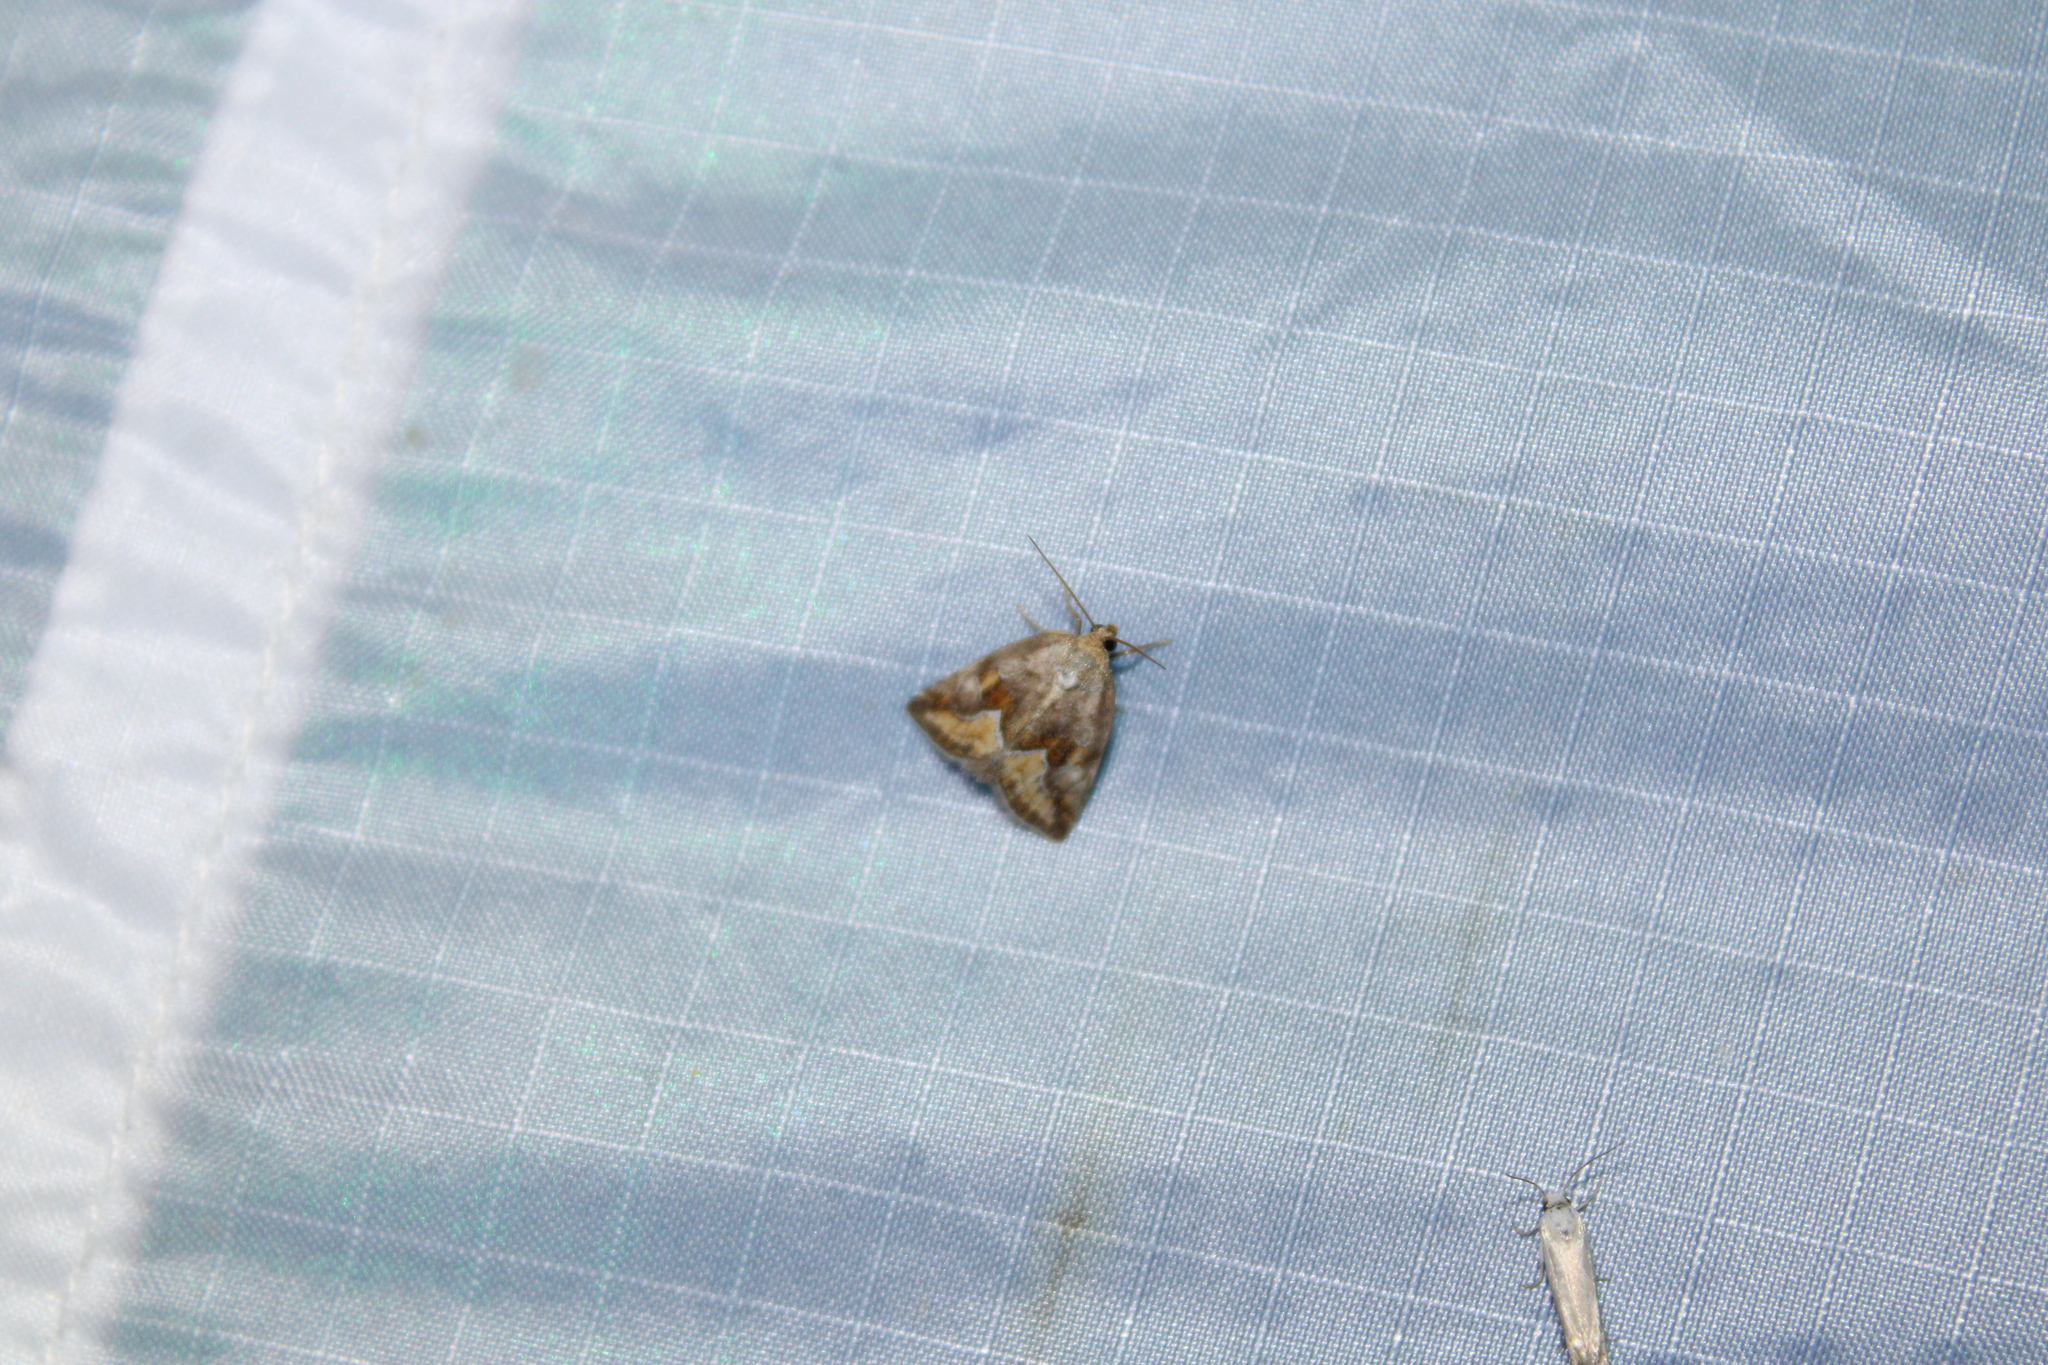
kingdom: Animalia
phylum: Arthropoda
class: Insecta
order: Lepidoptera
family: Noctuidae
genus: Deltote
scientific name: Deltote bellicula
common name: Bog glyph
